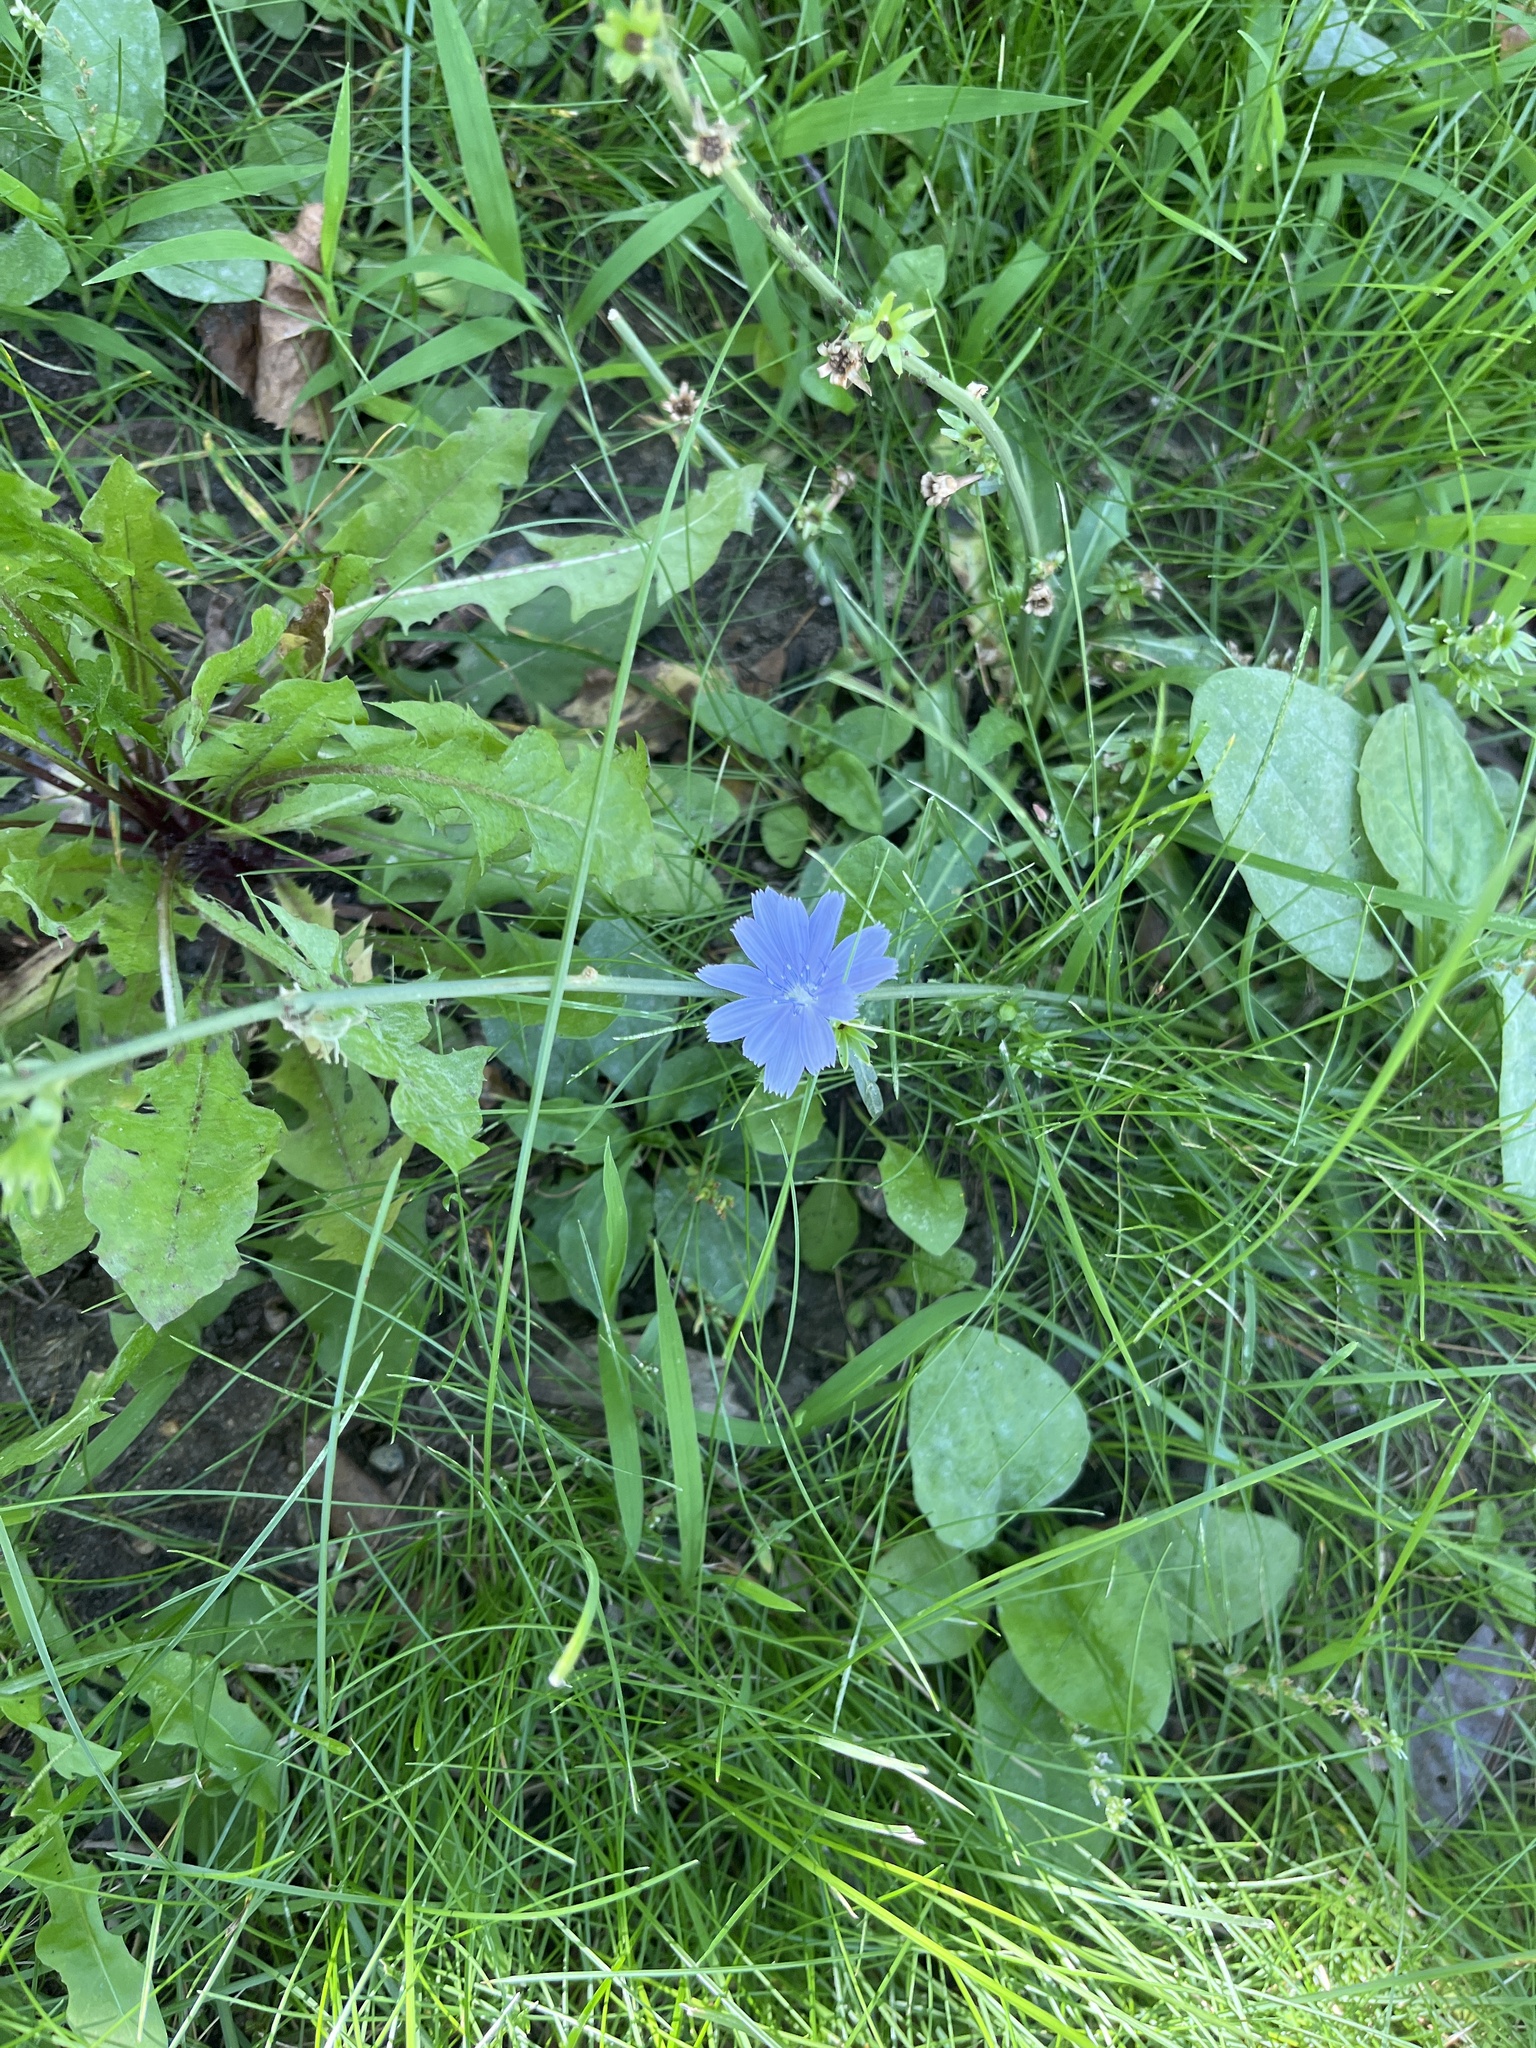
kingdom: Plantae
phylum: Tracheophyta
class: Magnoliopsida
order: Asterales
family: Asteraceae
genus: Cichorium
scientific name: Cichorium intybus
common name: Chicory
